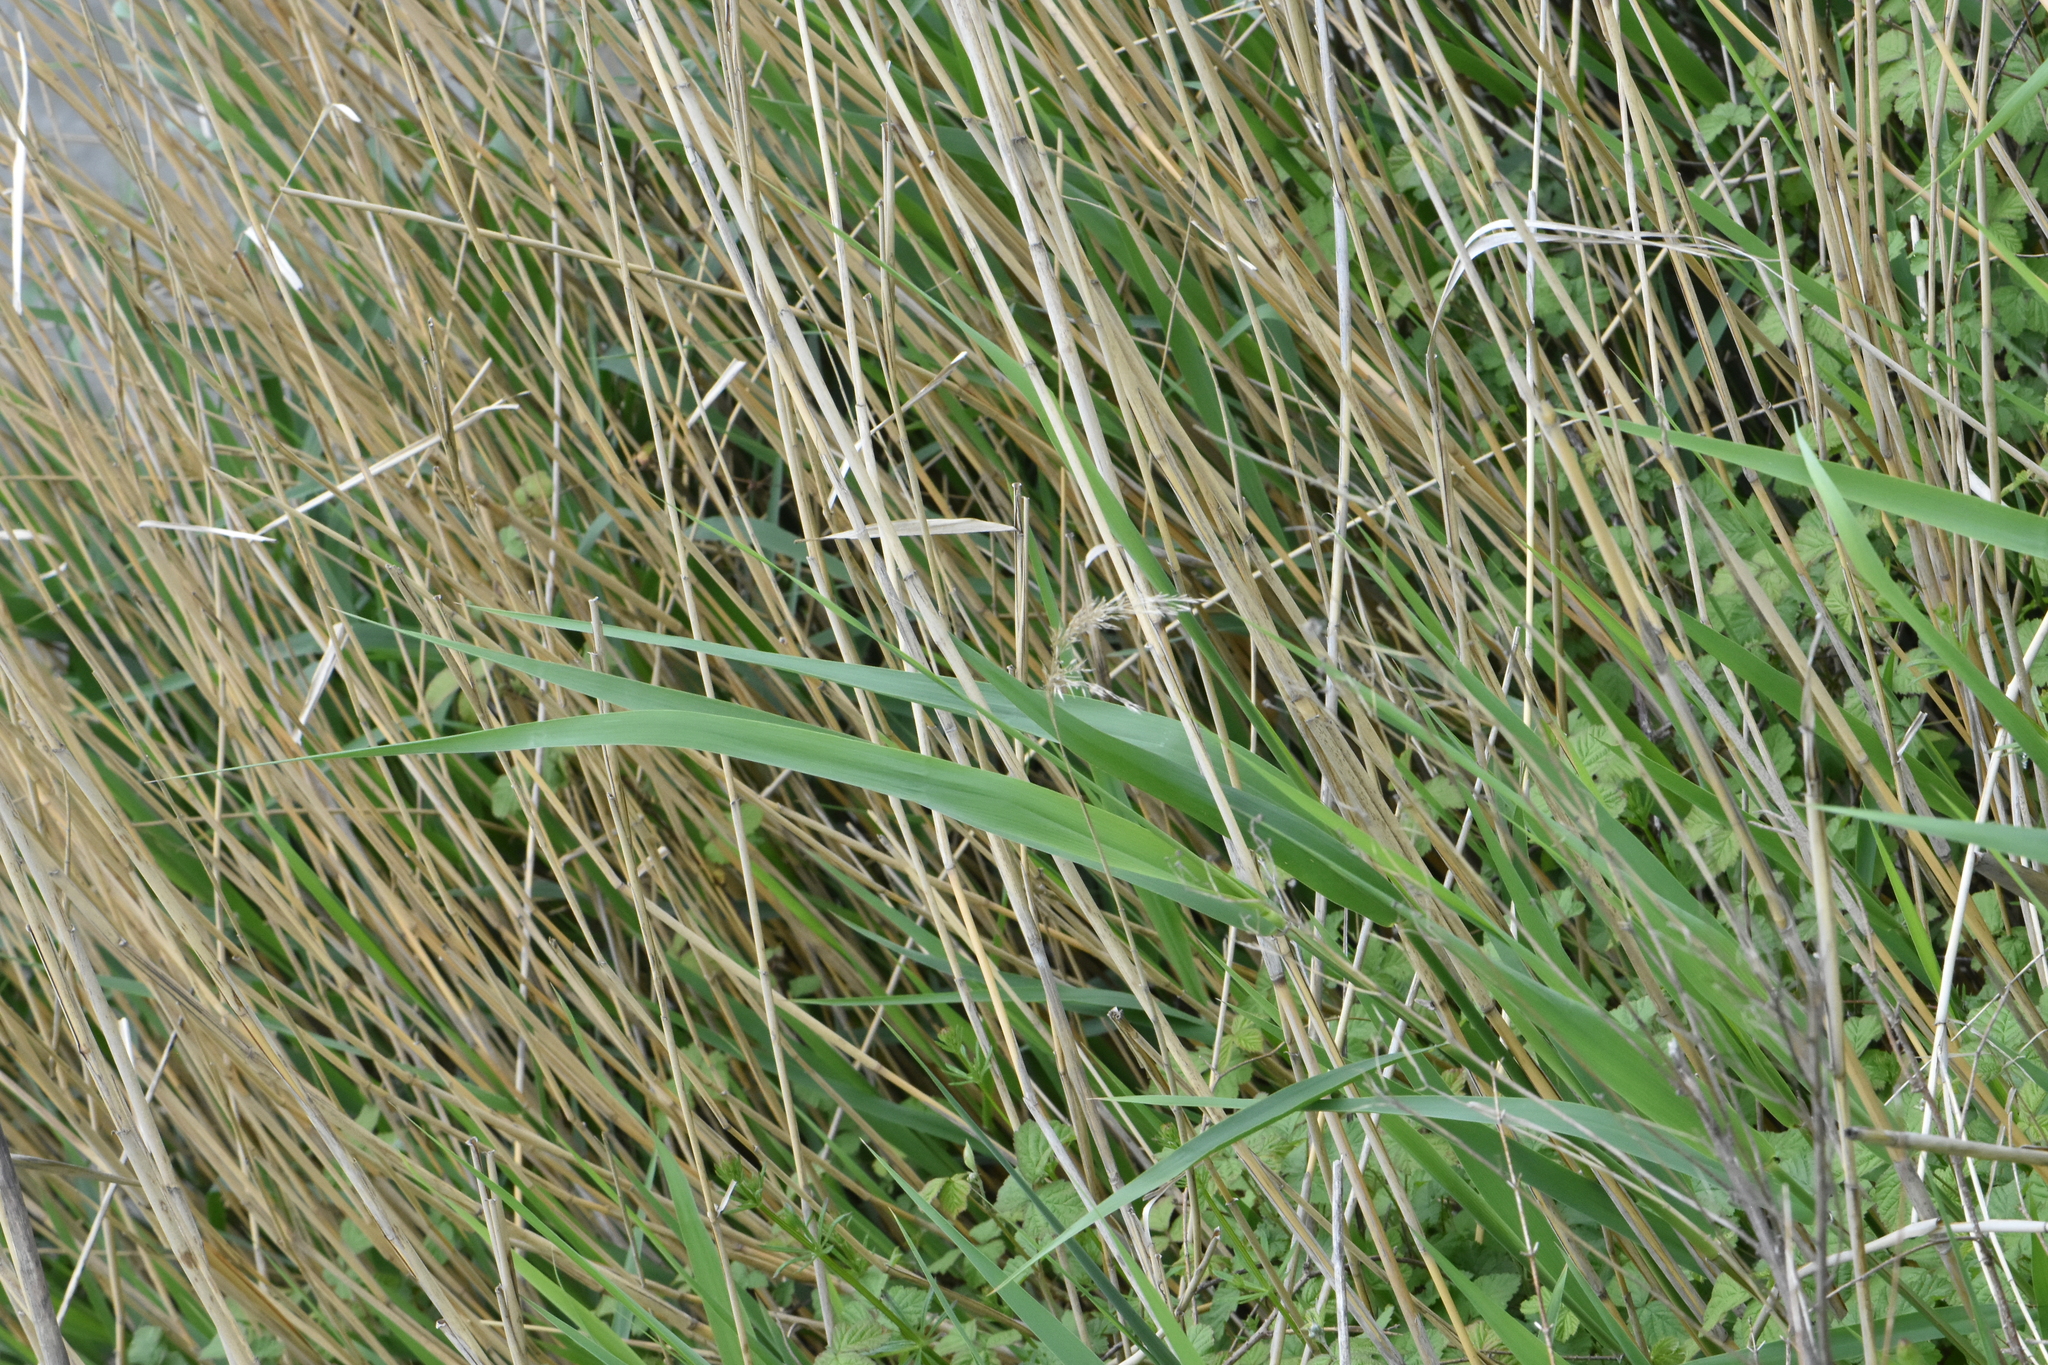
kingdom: Plantae
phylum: Tracheophyta
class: Liliopsida
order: Poales
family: Poaceae
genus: Phragmites
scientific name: Phragmites australis
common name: Common reed
